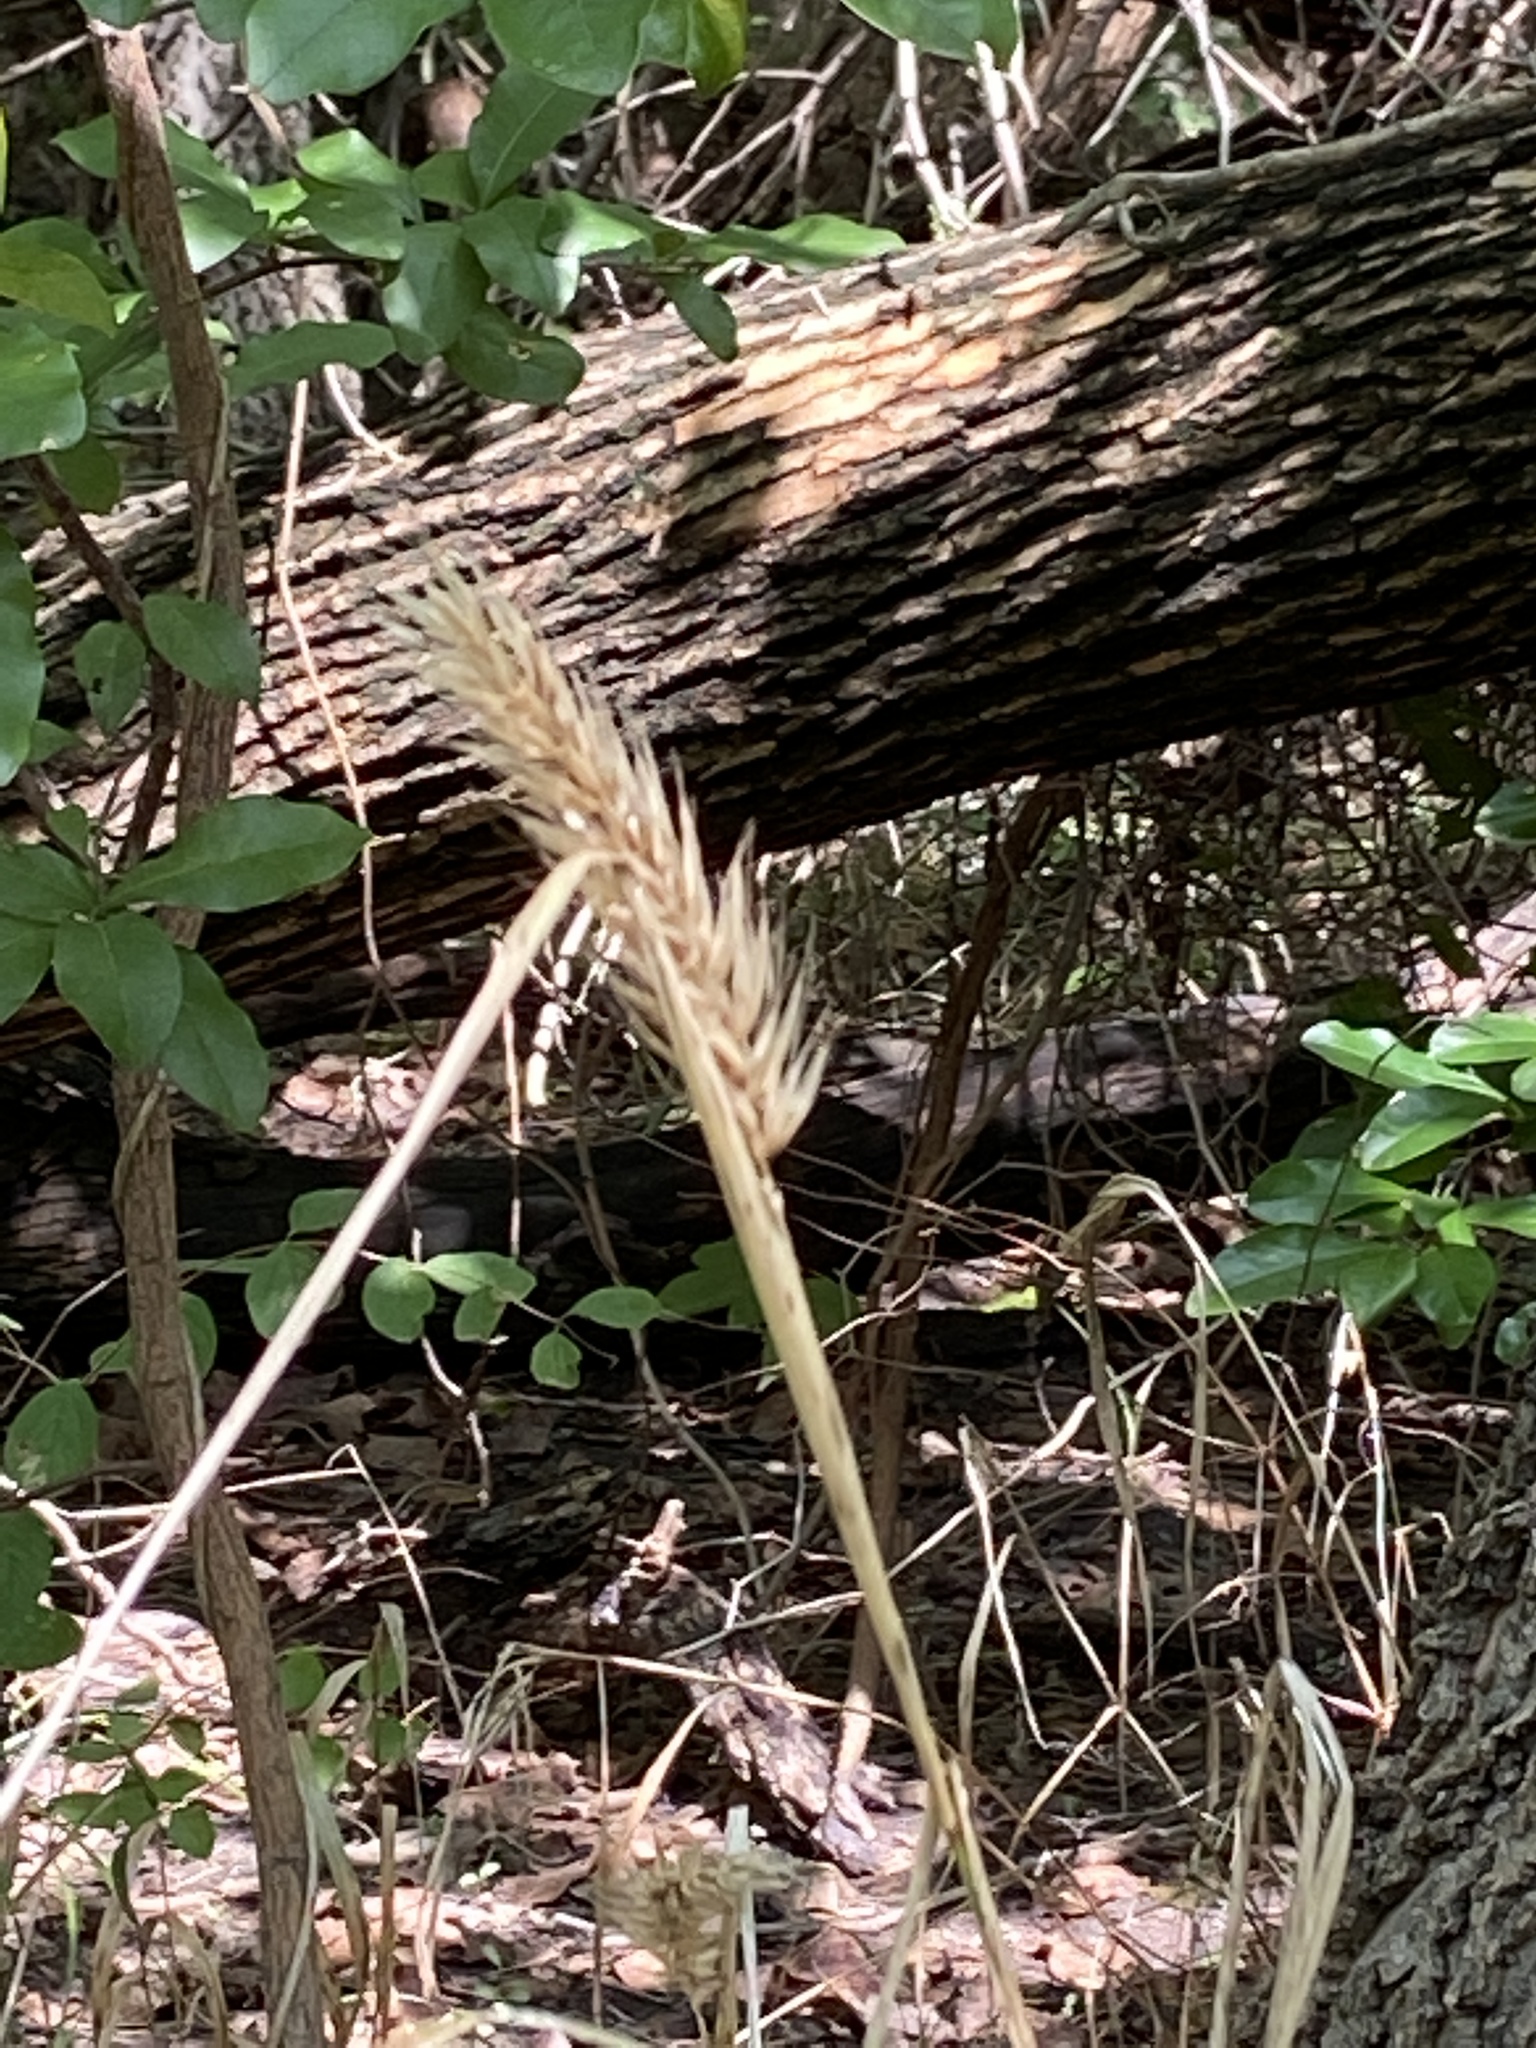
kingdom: Plantae
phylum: Tracheophyta
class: Liliopsida
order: Poales
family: Poaceae
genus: Elymus
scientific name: Elymus virginicus
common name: Common eastern wildrye
